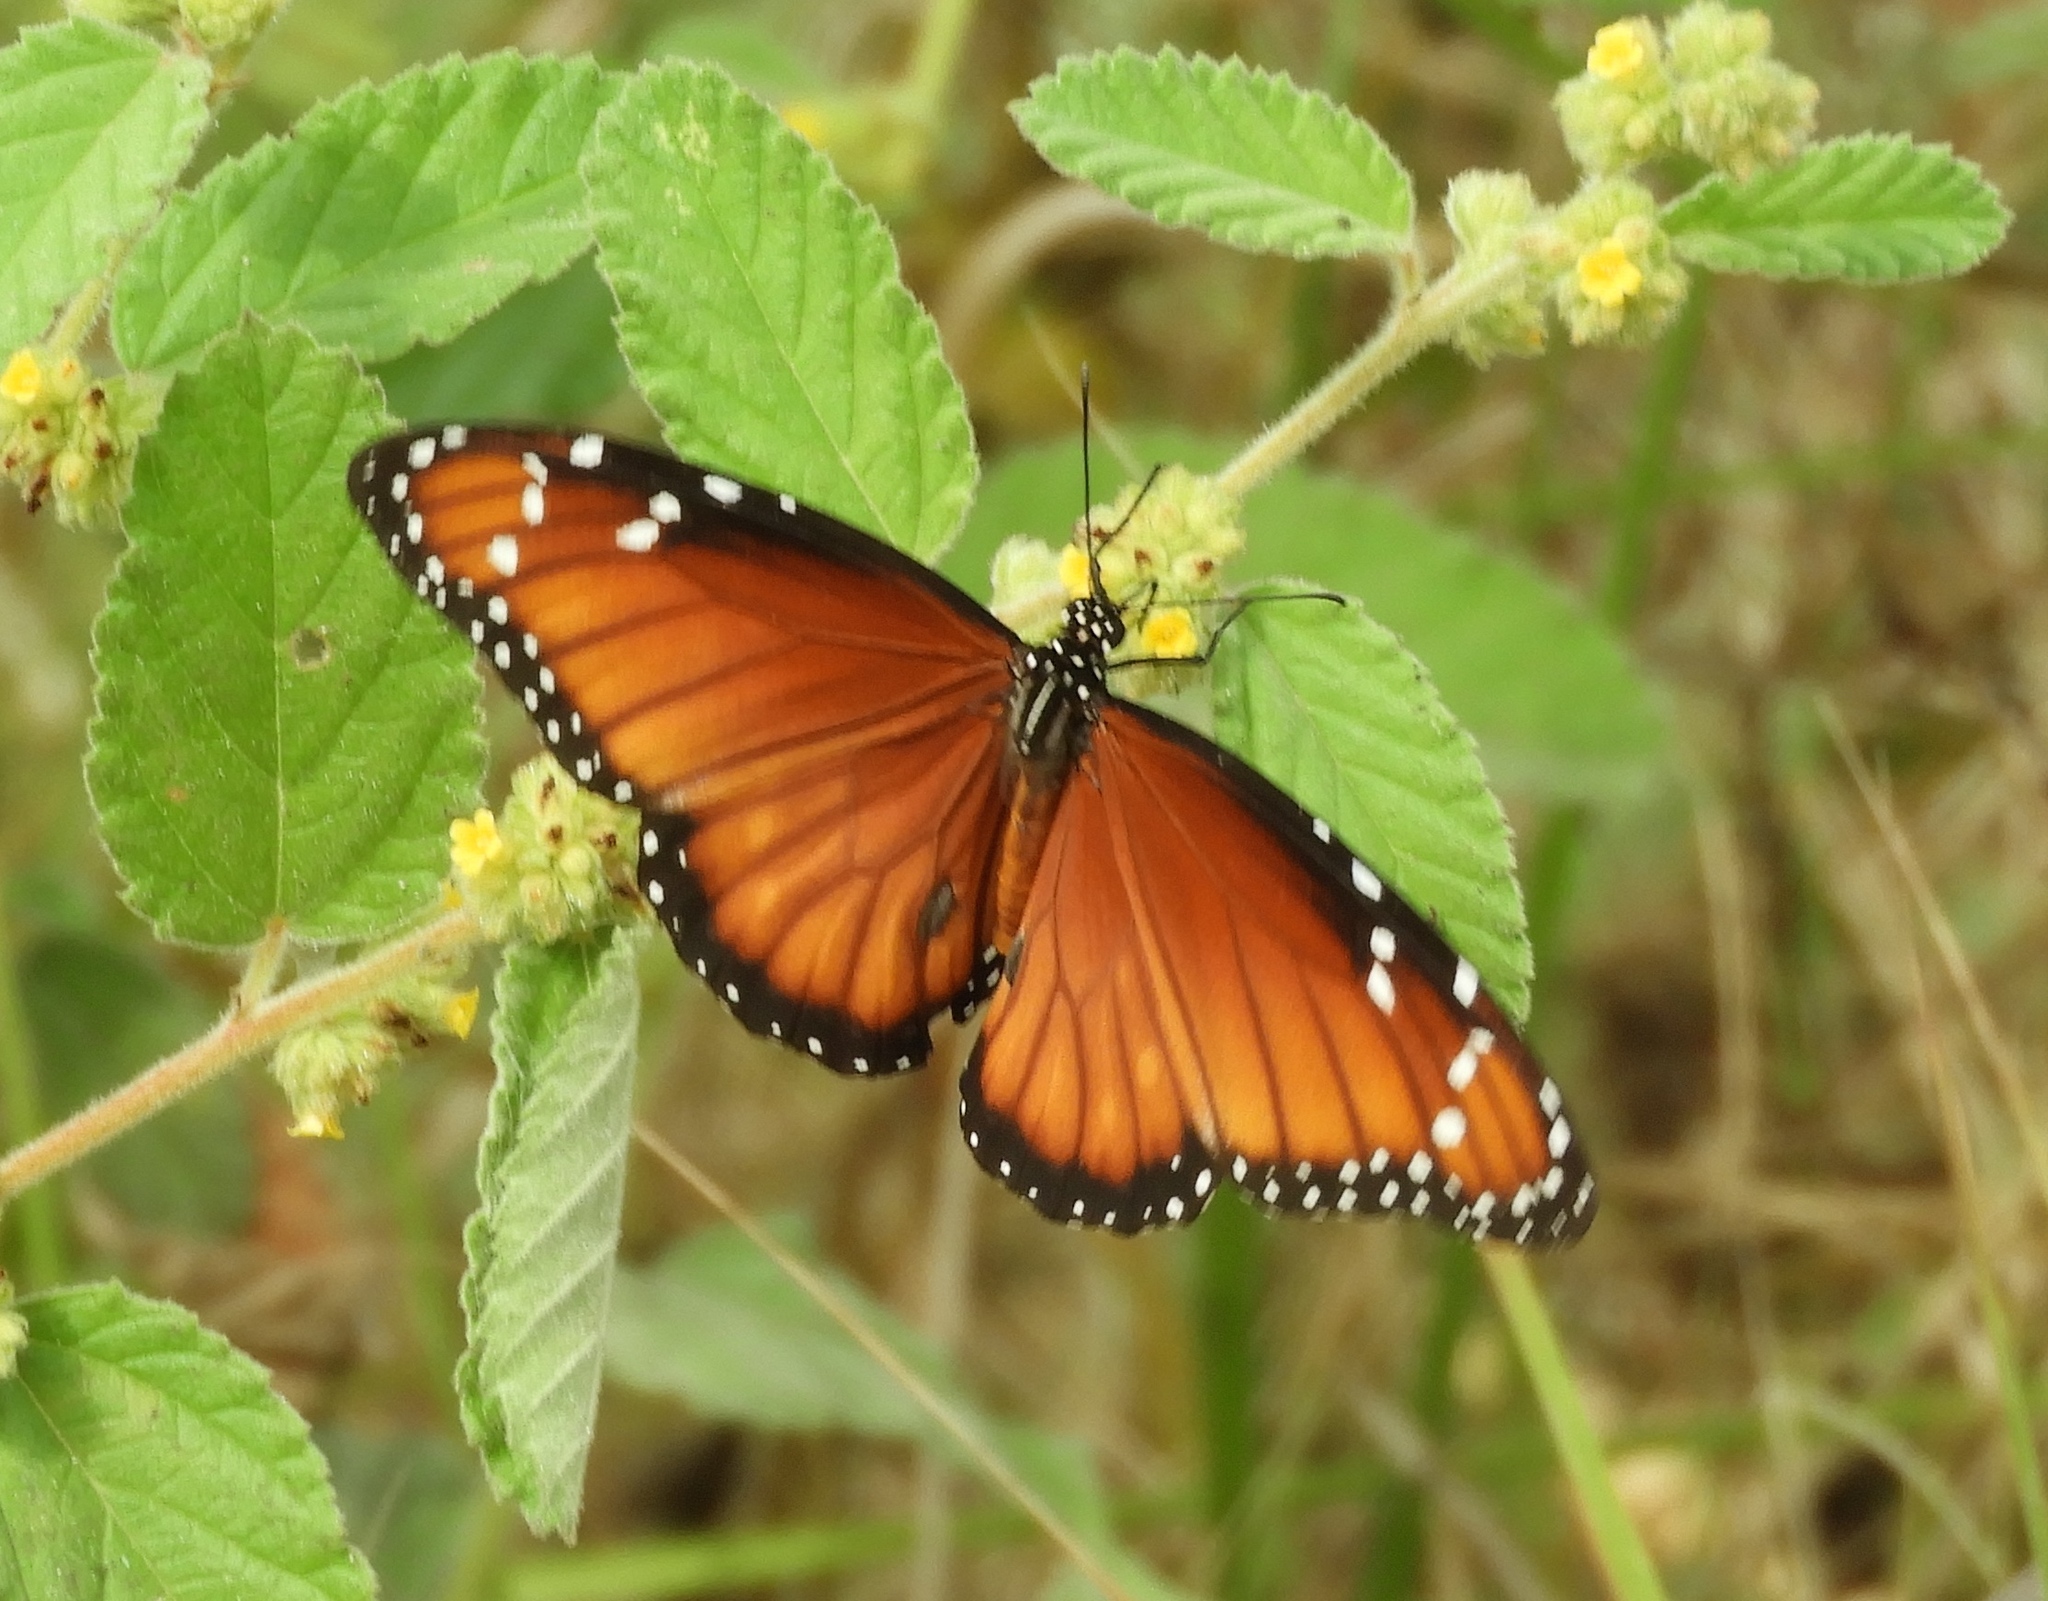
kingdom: Animalia
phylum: Arthropoda
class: Insecta
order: Lepidoptera
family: Nymphalidae
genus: Danaus
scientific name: Danaus eresimus
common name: Soldier
